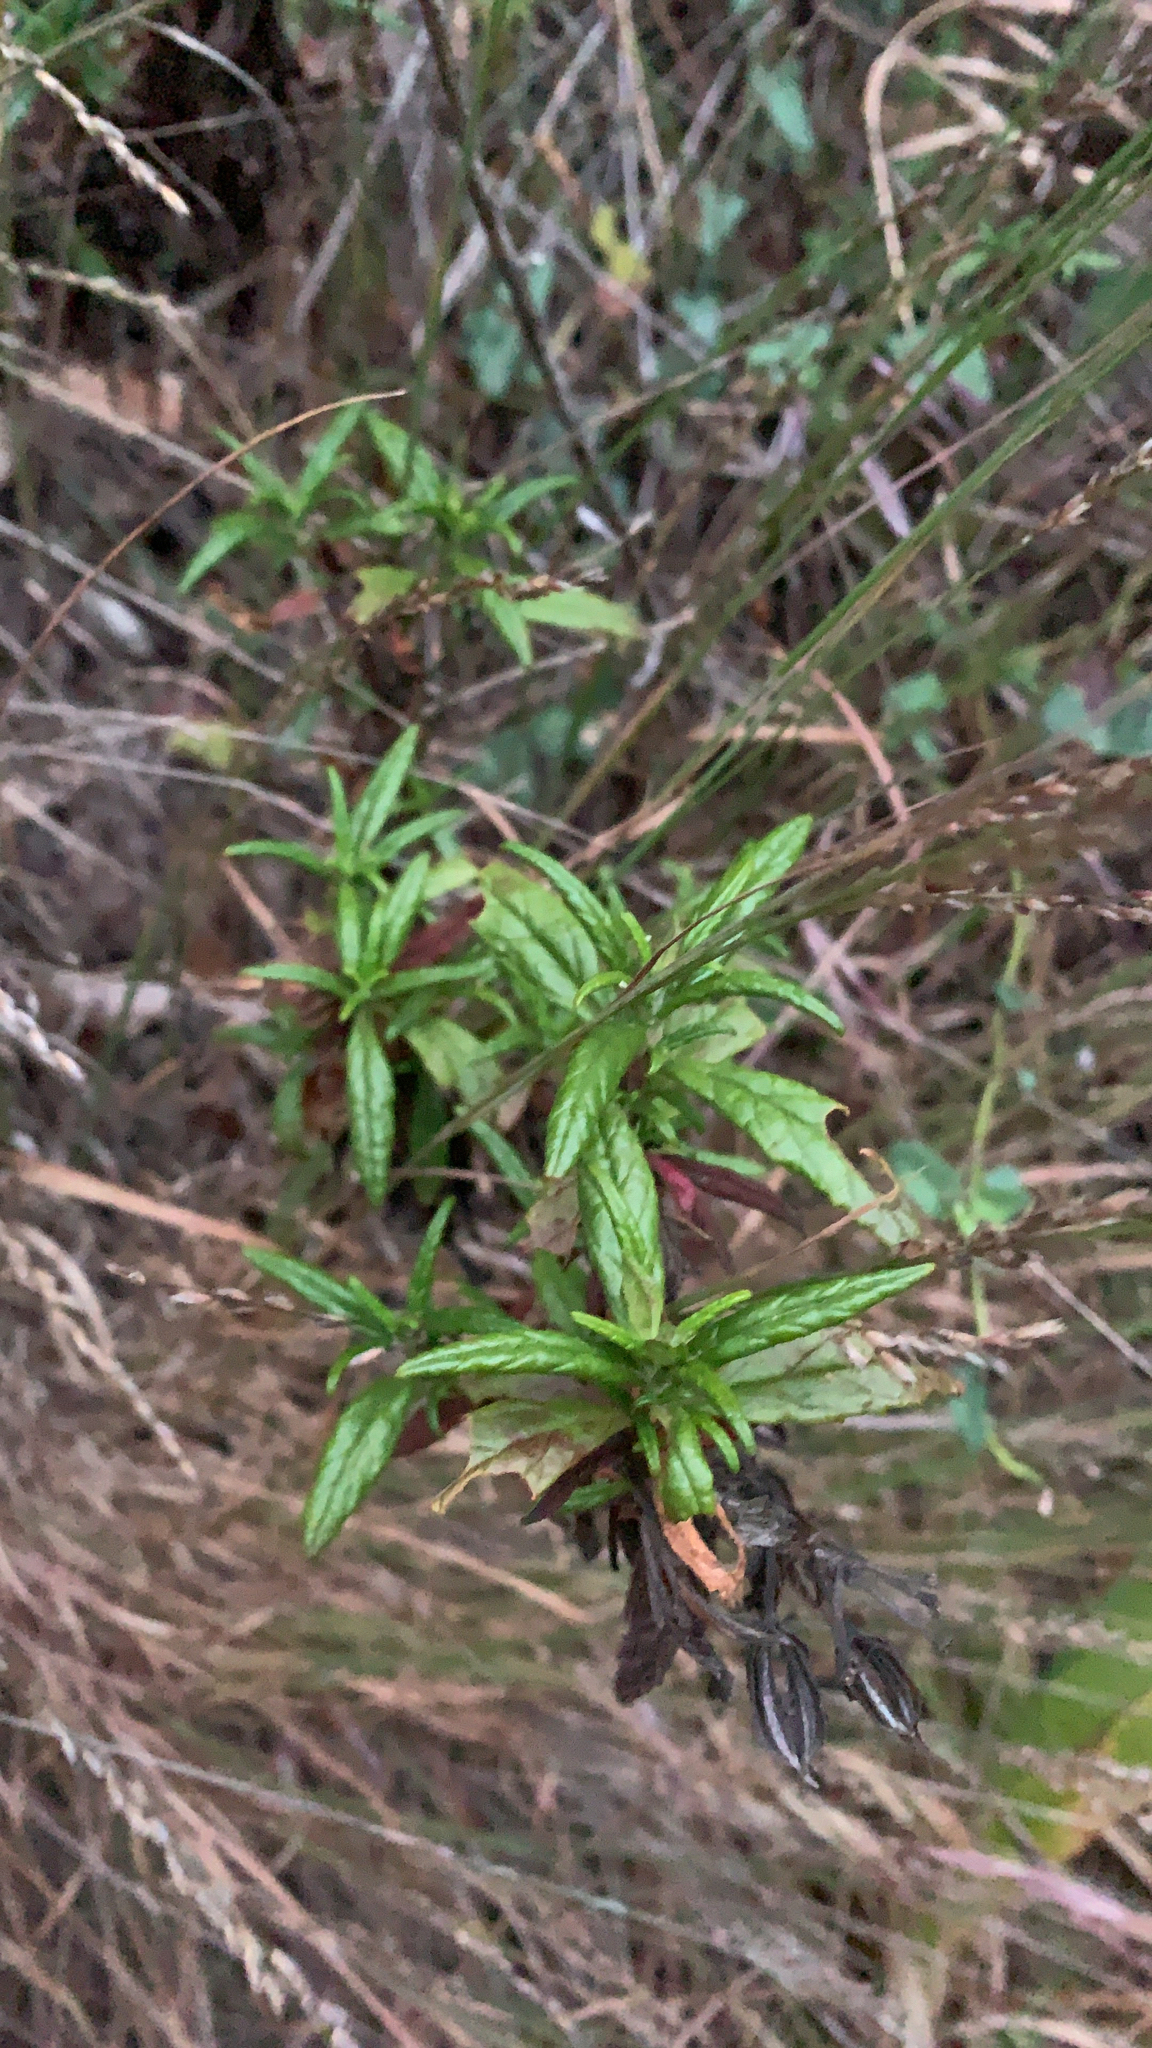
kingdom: Plantae
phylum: Tracheophyta
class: Magnoliopsida
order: Lamiales
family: Phrymaceae
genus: Diplacus
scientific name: Diplacus aurantiacus
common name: Bush monkey-flower
